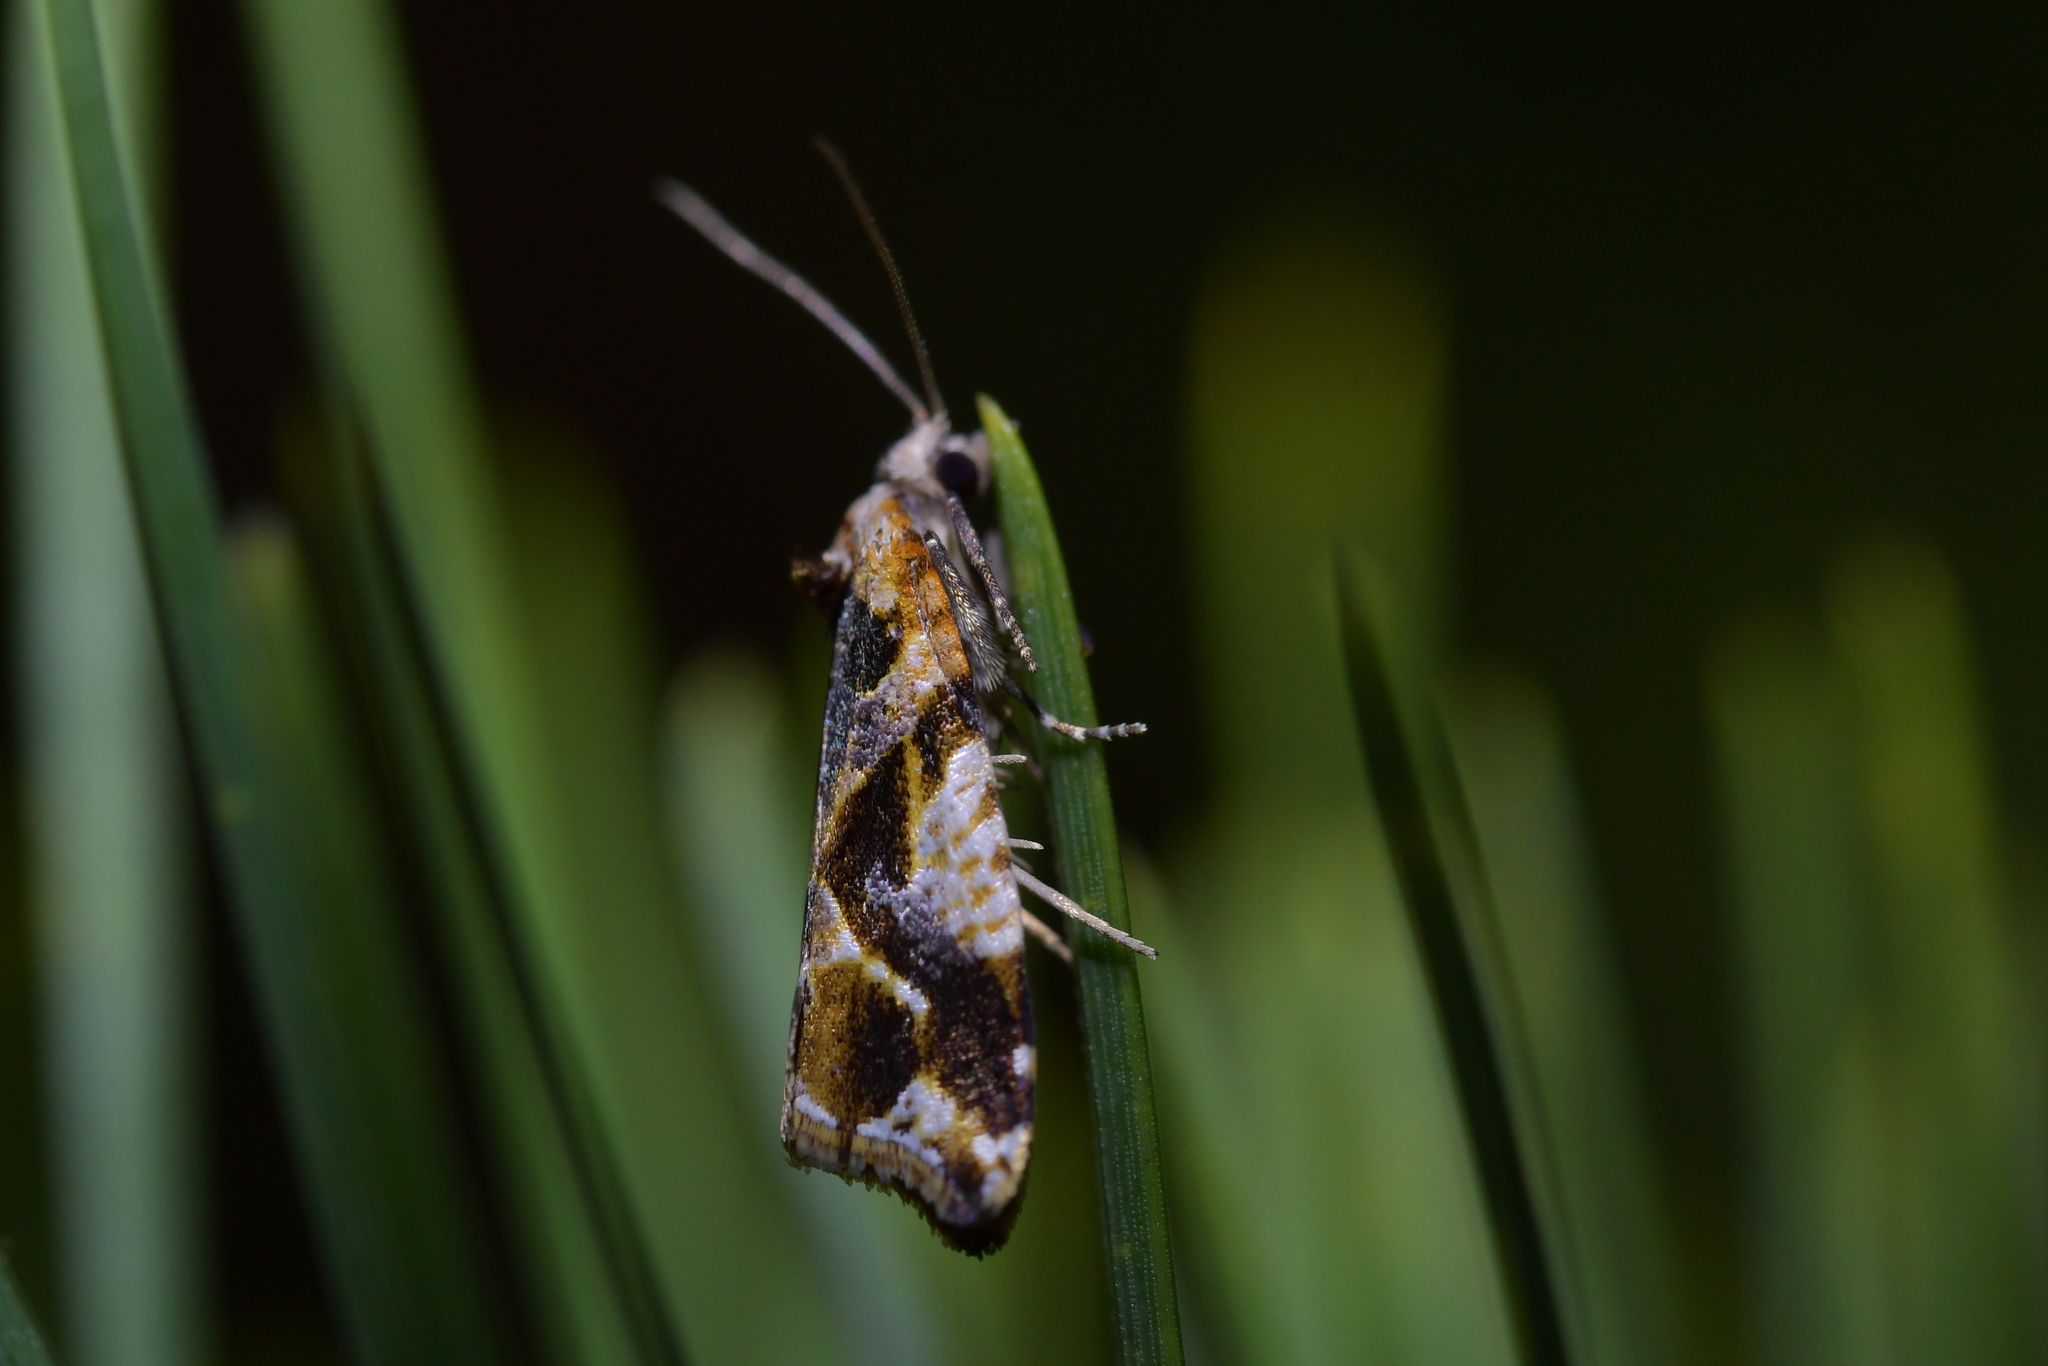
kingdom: Animalia
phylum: Arthropoda
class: Insecta
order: Lepidoptera
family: Tortricidae
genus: Pyrgotis
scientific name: Pyrgotis plagiatana
